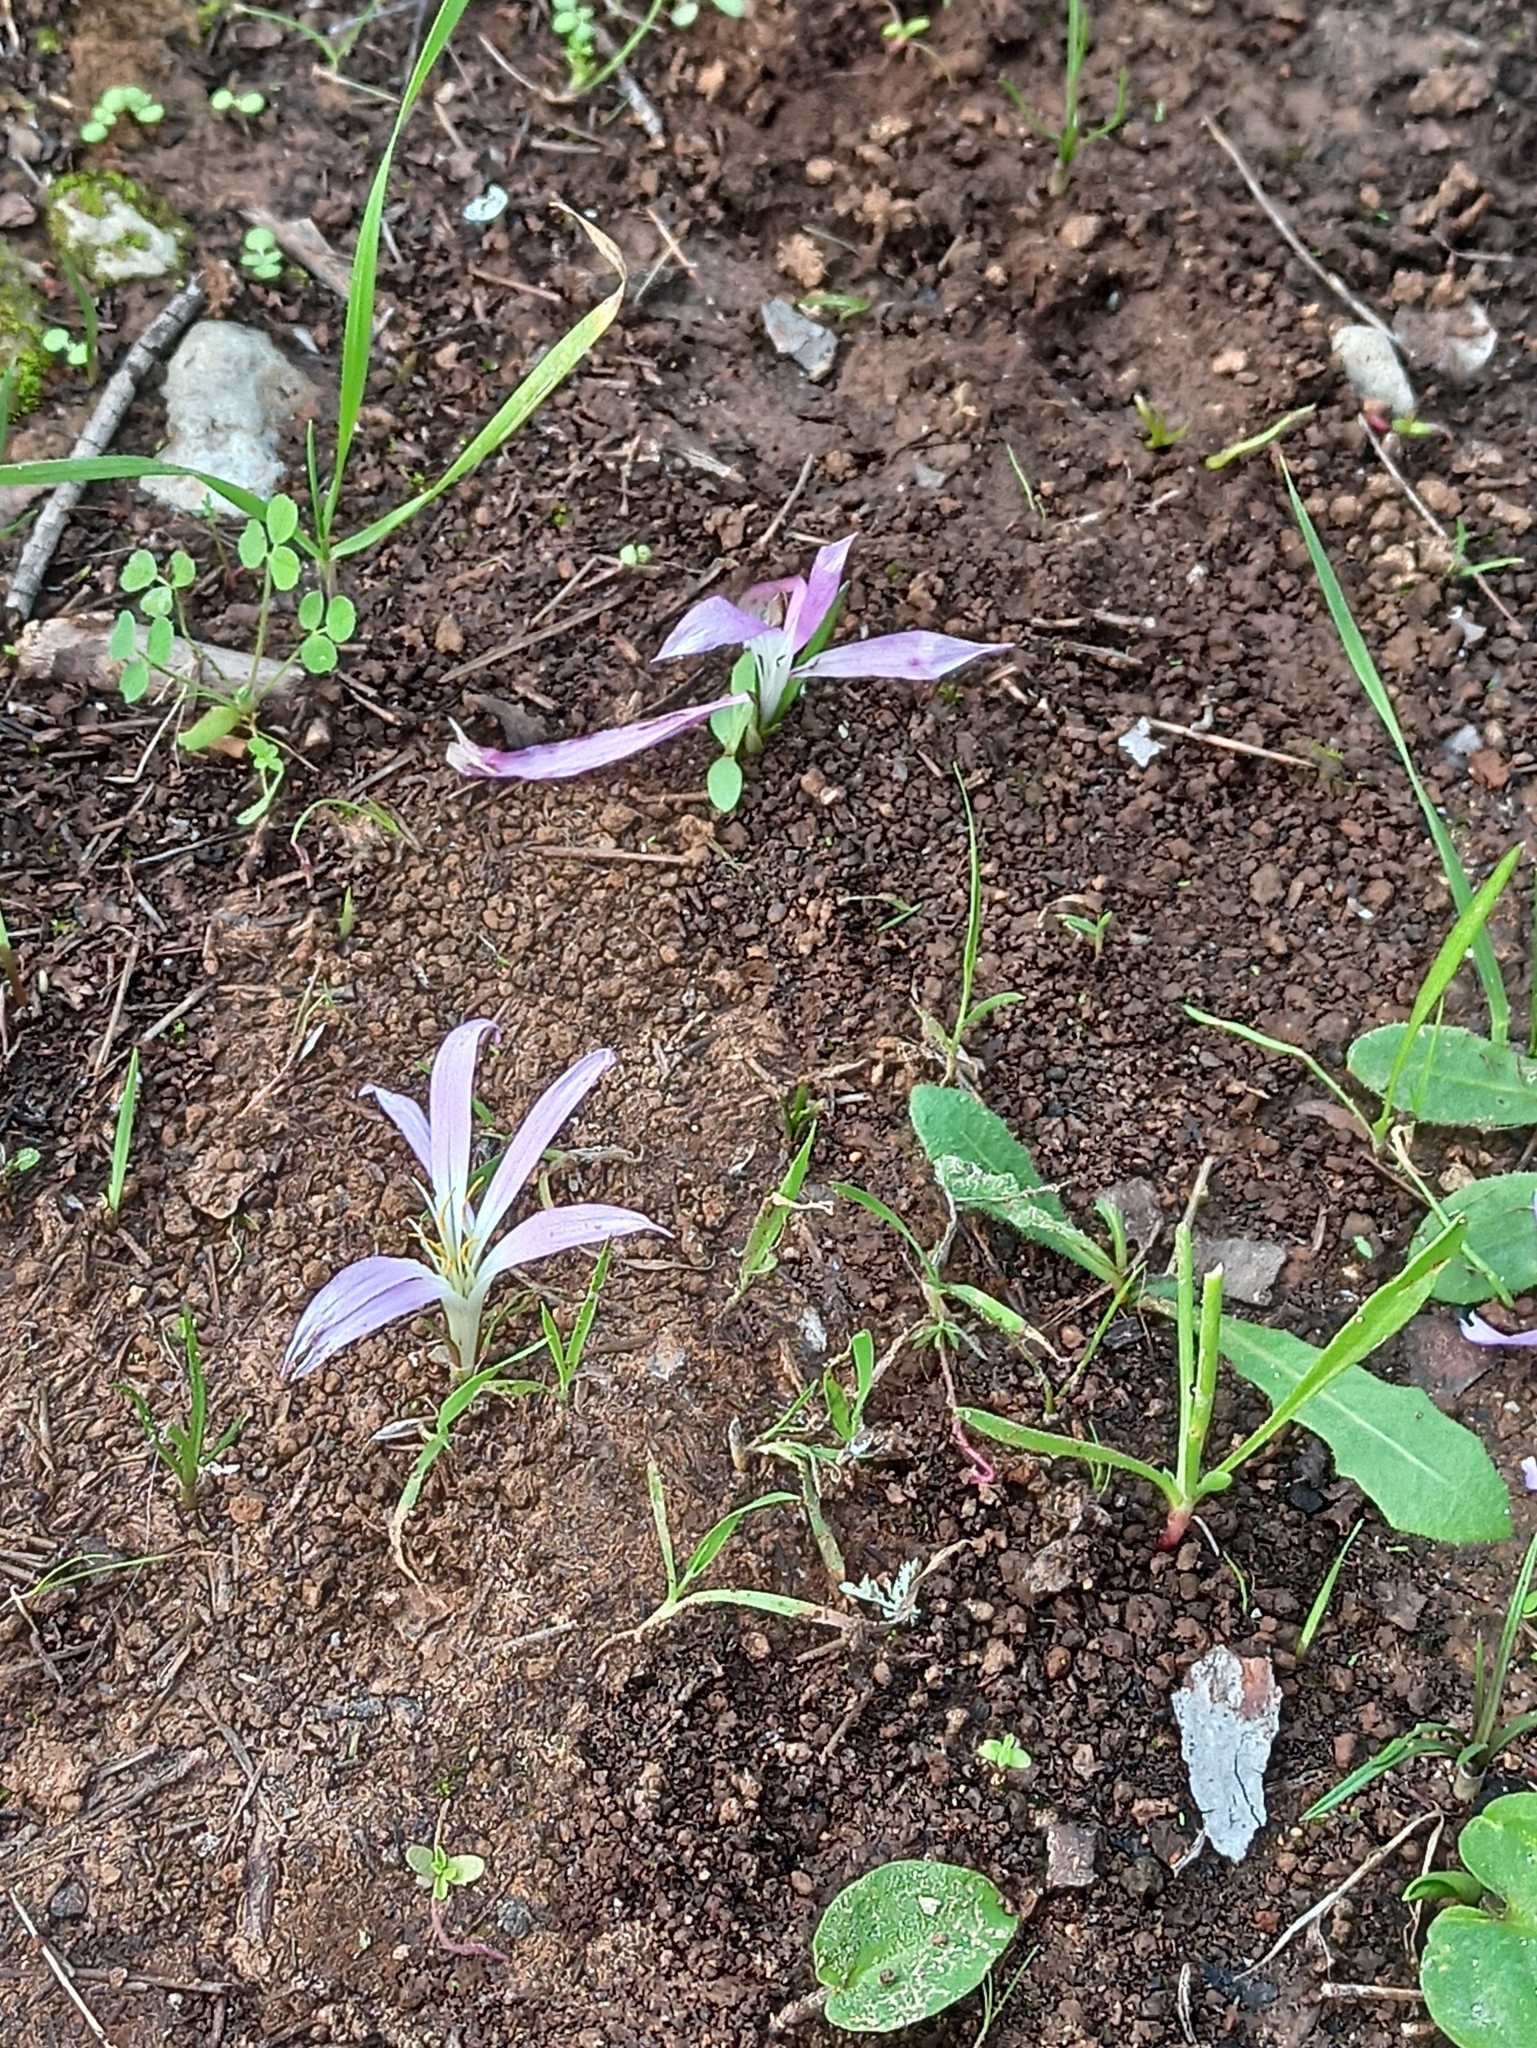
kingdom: Plantae
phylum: Tracheophyta
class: Liliopsida
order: Liliales
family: Colchicaceae
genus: Colchicum
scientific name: Colchicum filifolium
